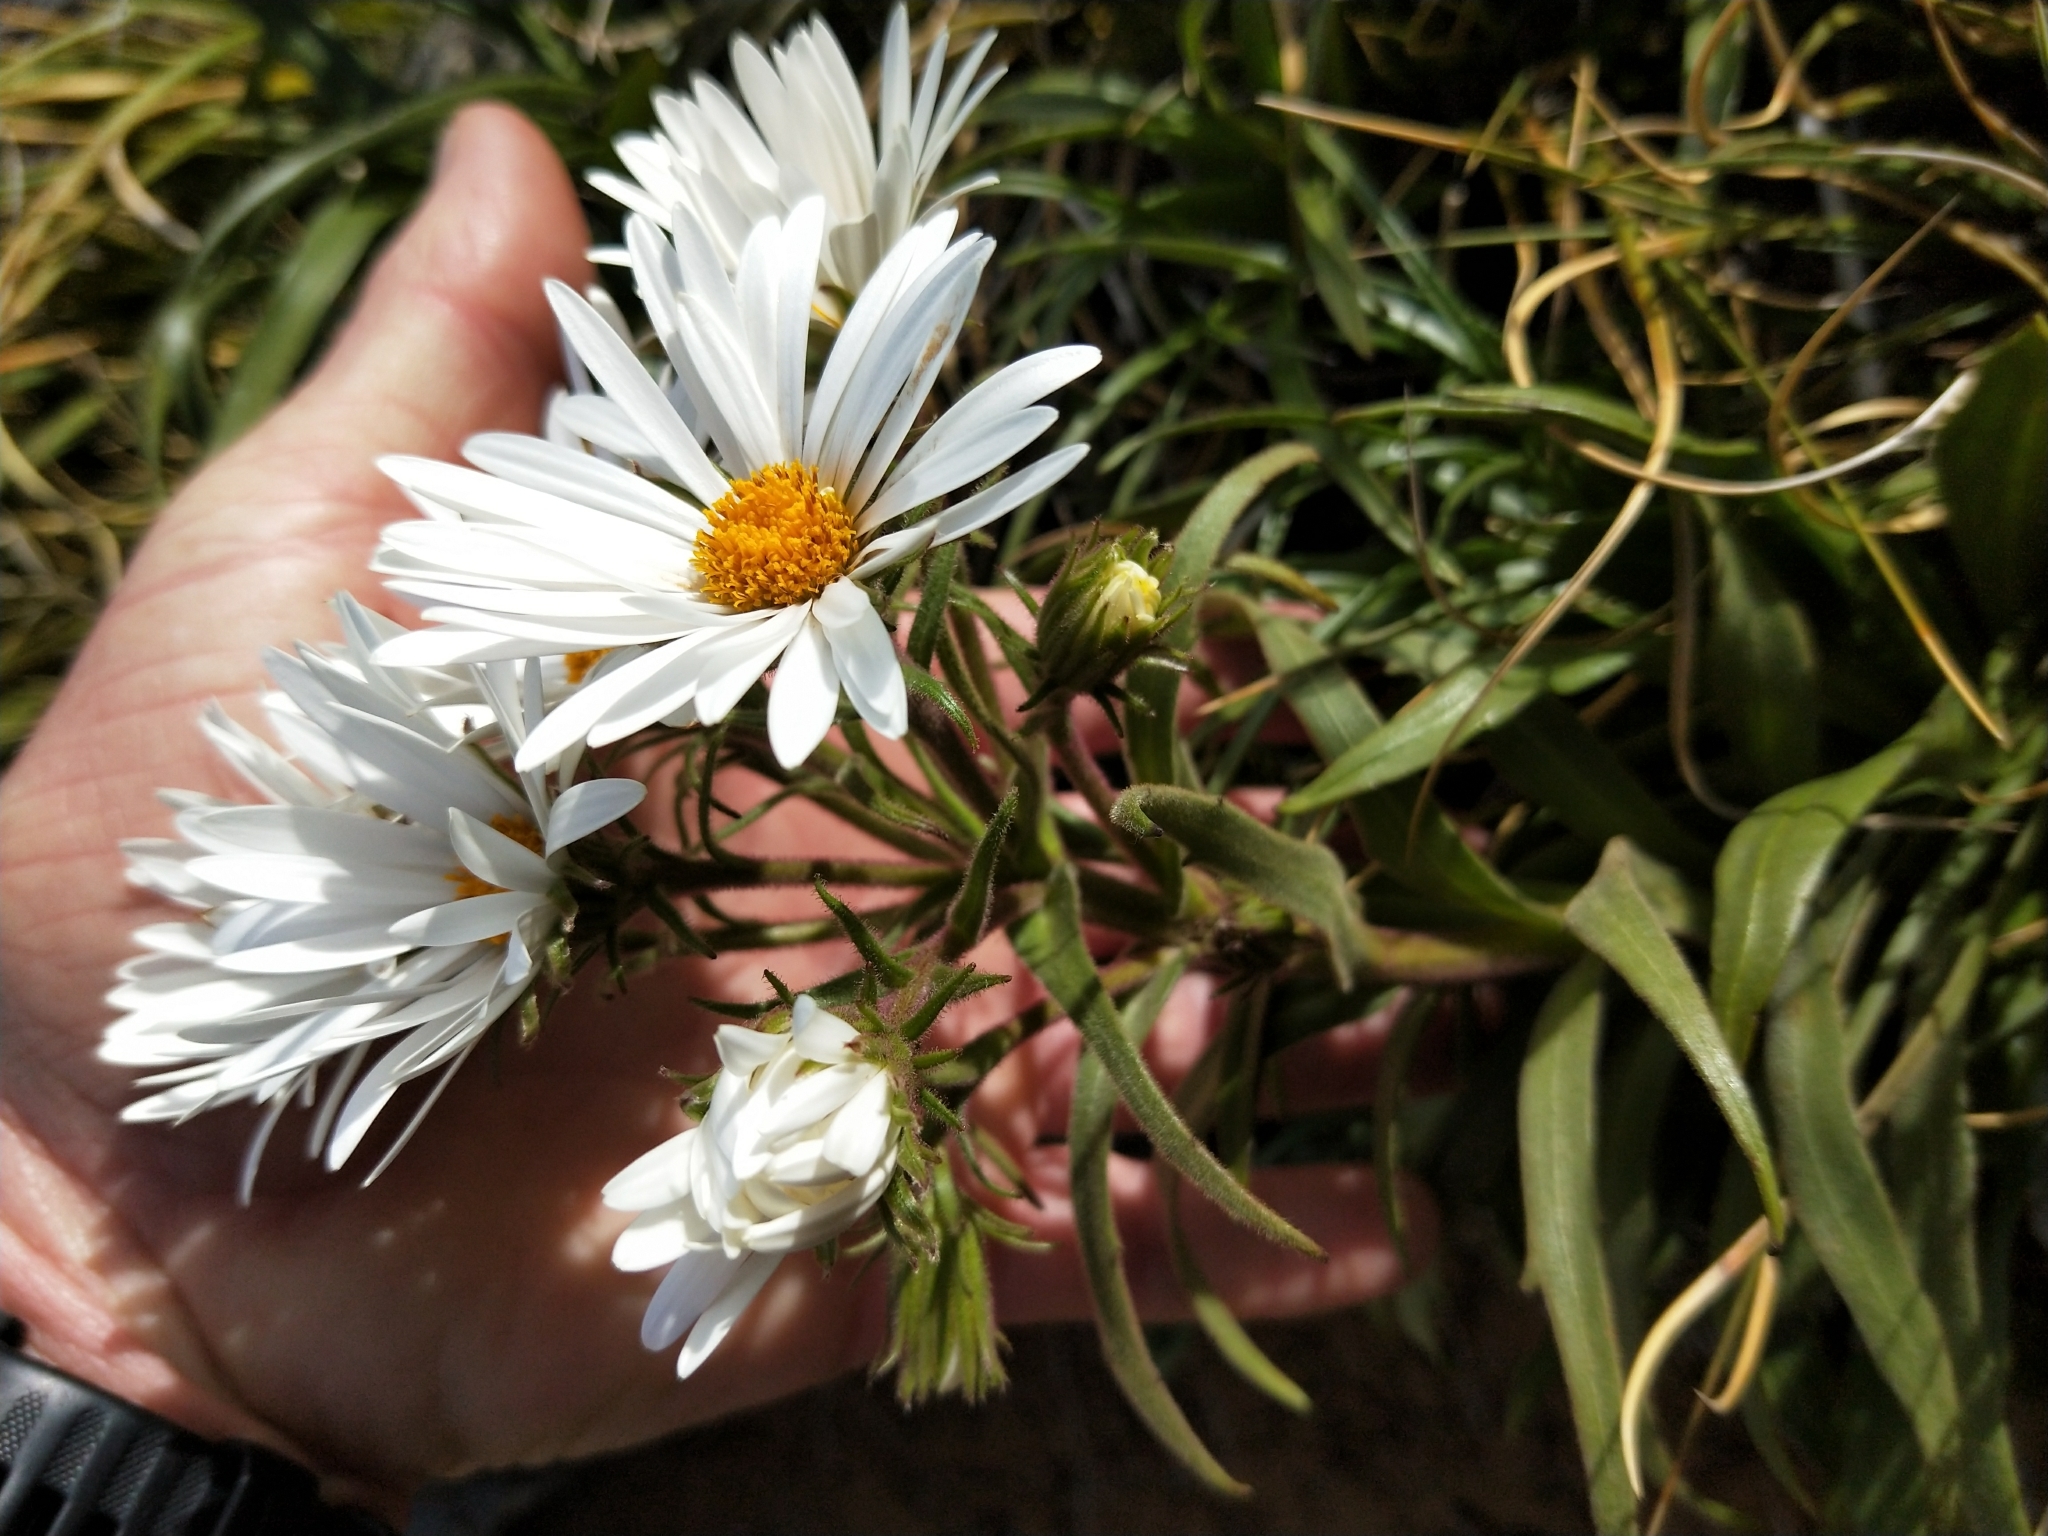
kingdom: Plantae
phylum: Tracheophyta
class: Magnoliopsida
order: Asterales
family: Asteraceae
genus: Dolichoglottis
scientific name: Dolichoglottis scorzoneroides
